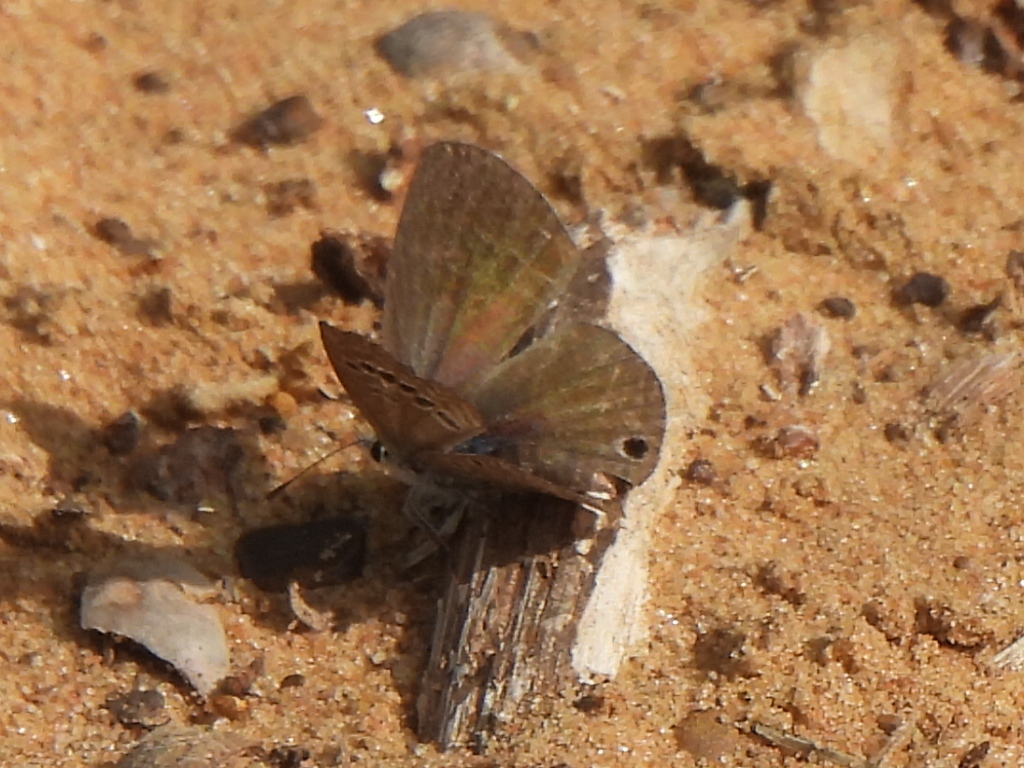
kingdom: Animalia
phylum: Arthropoda
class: Insecta
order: Lepidoptera
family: Lycaenidae
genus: Echinargus
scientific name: Echinargus isola
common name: Reakirt's blue
